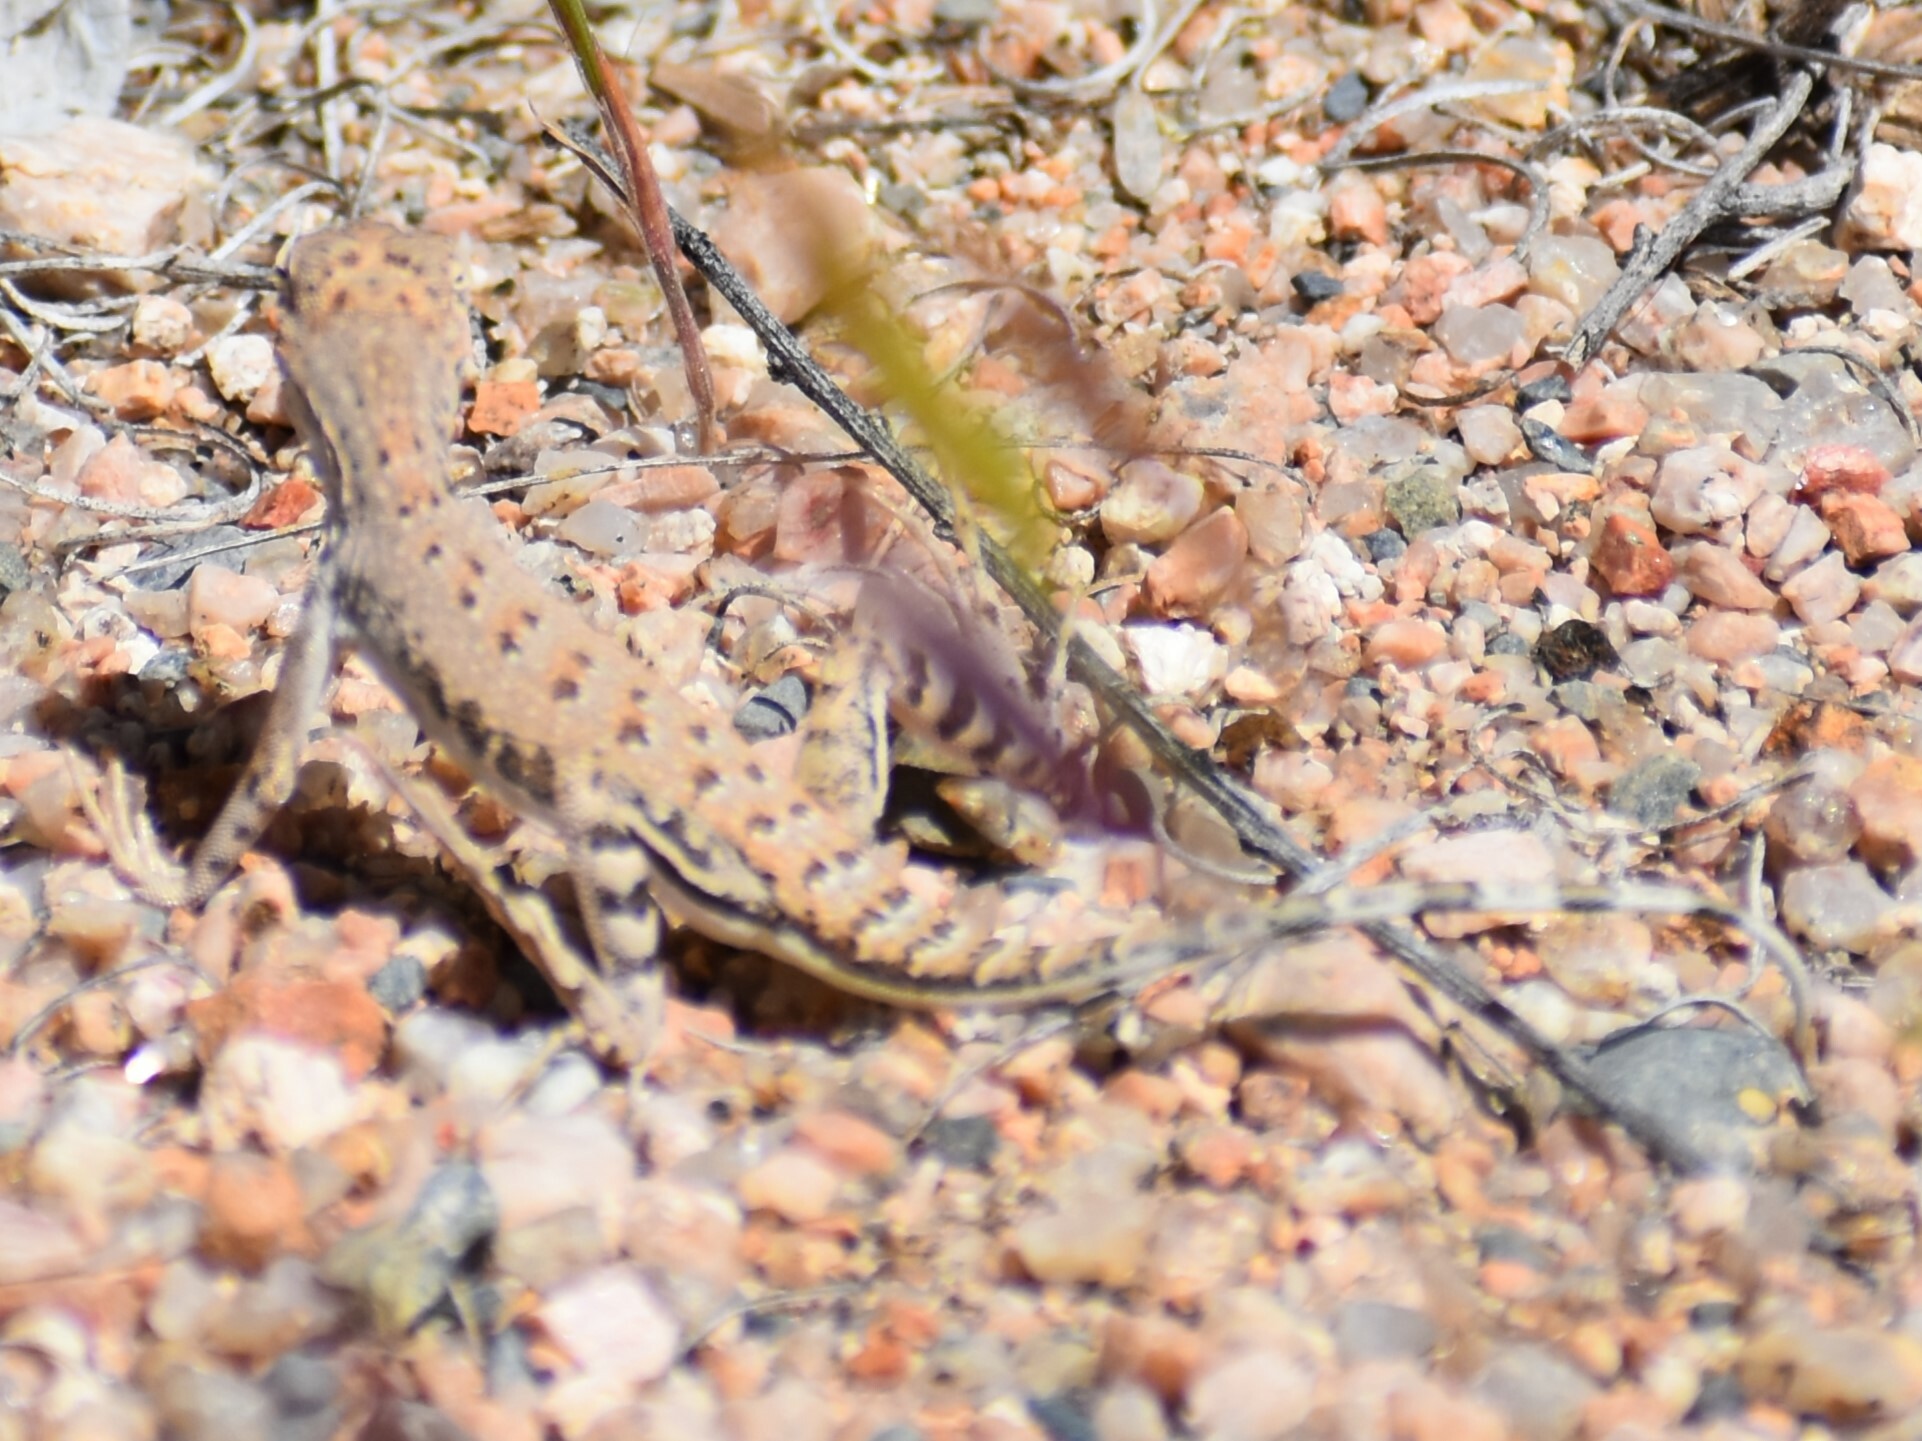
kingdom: Animalia
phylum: Chordata
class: Squamata
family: Phrynosomatidae
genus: Callisaurus
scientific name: Callisaurus draconoides
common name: Zebra-tailed lizard
